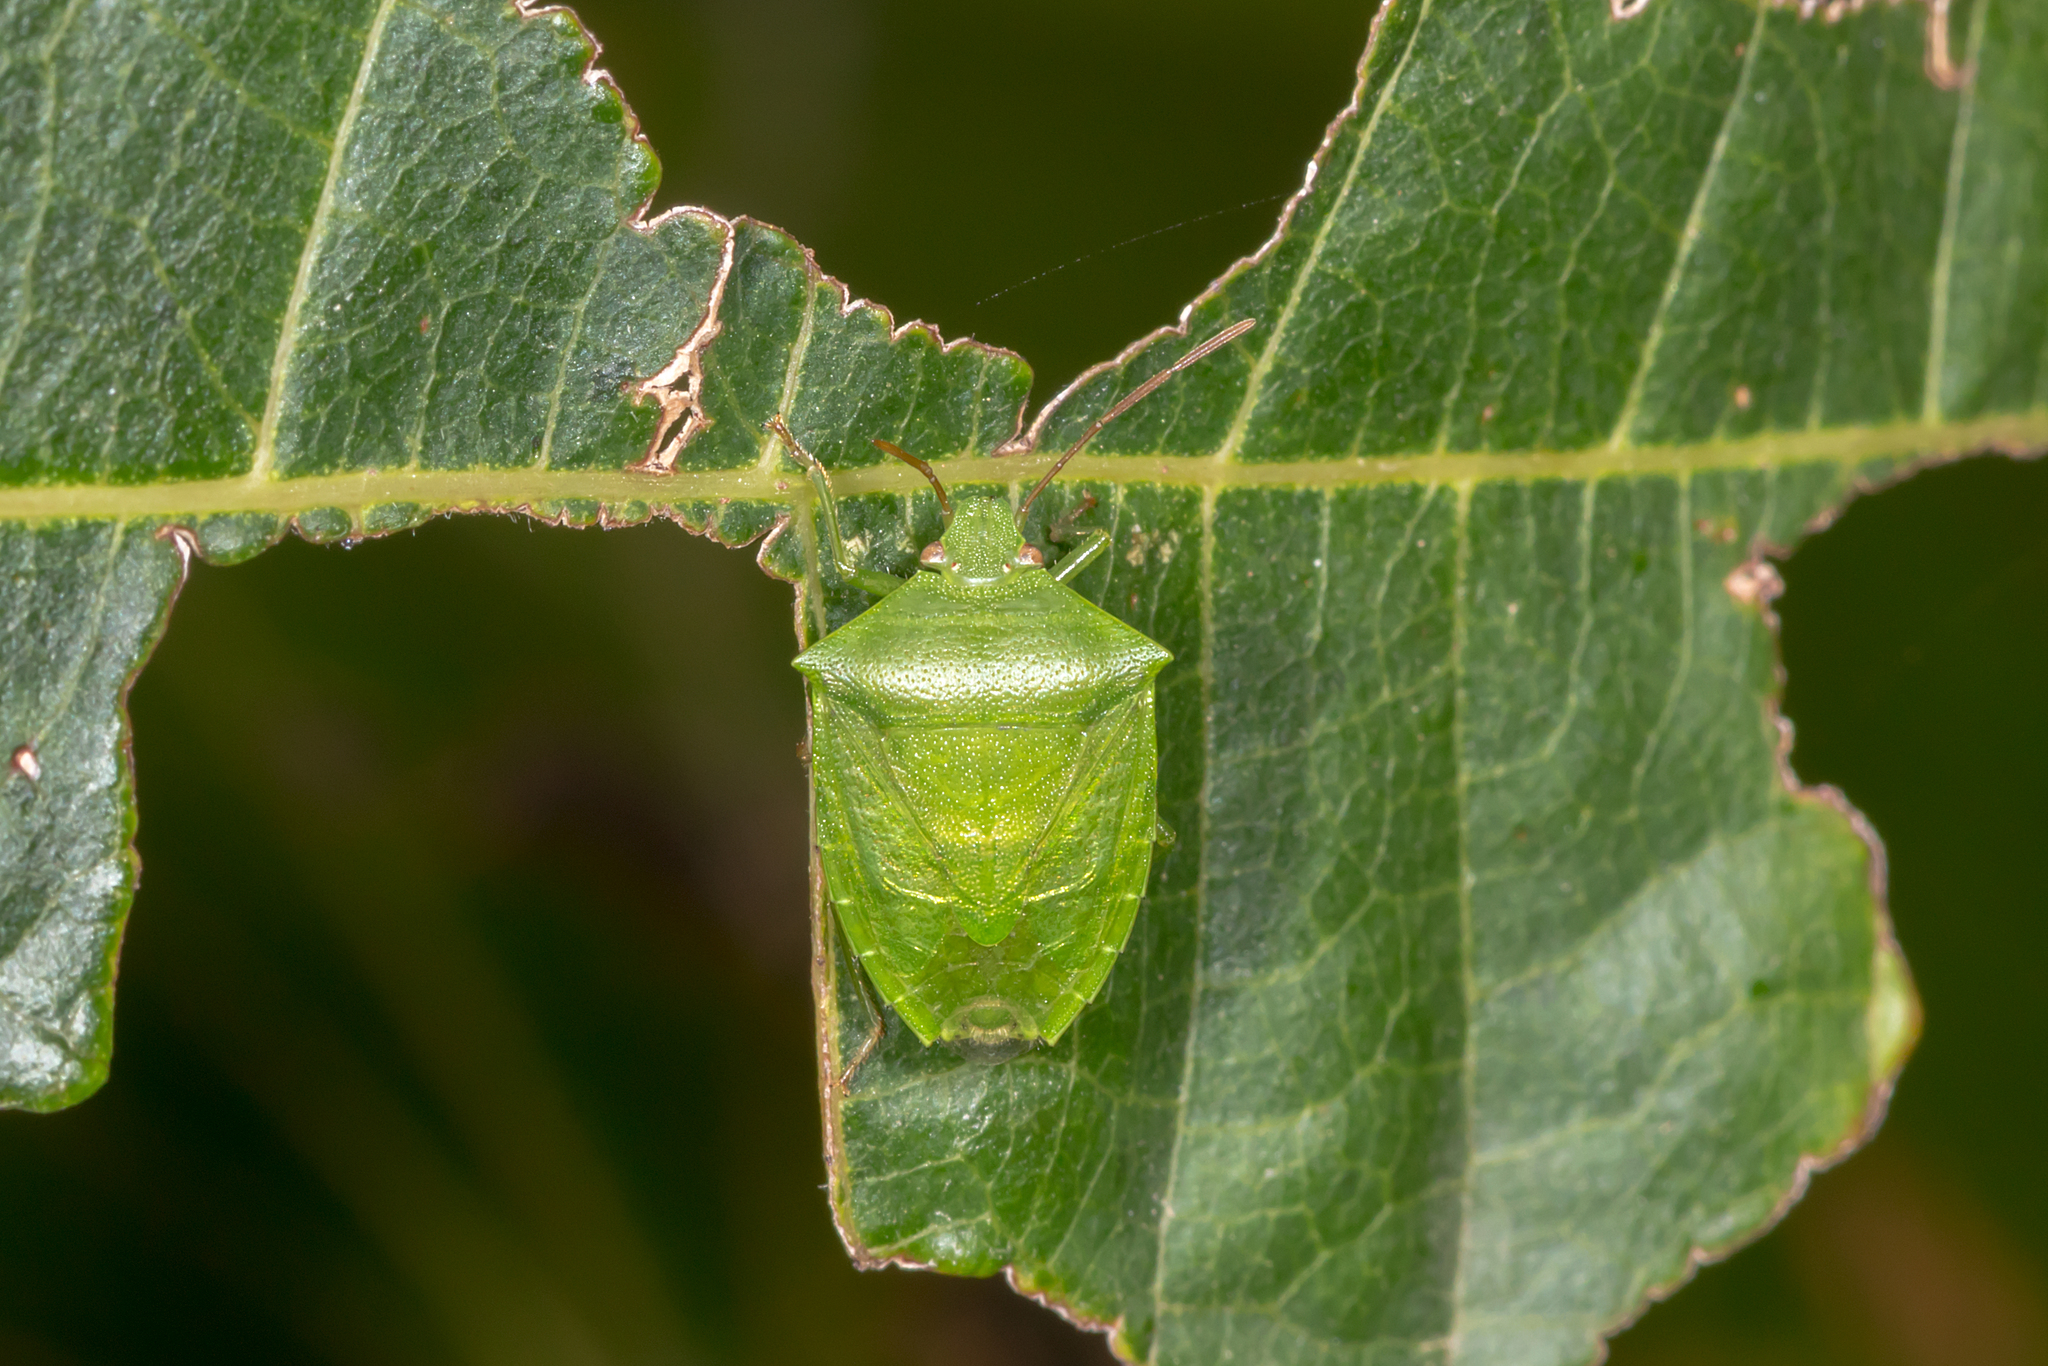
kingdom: Animalia
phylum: Arthropoda
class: Insecta
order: Hemiptera
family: Pentatomidae
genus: Cuspicona
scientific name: Cuspicona simplex
